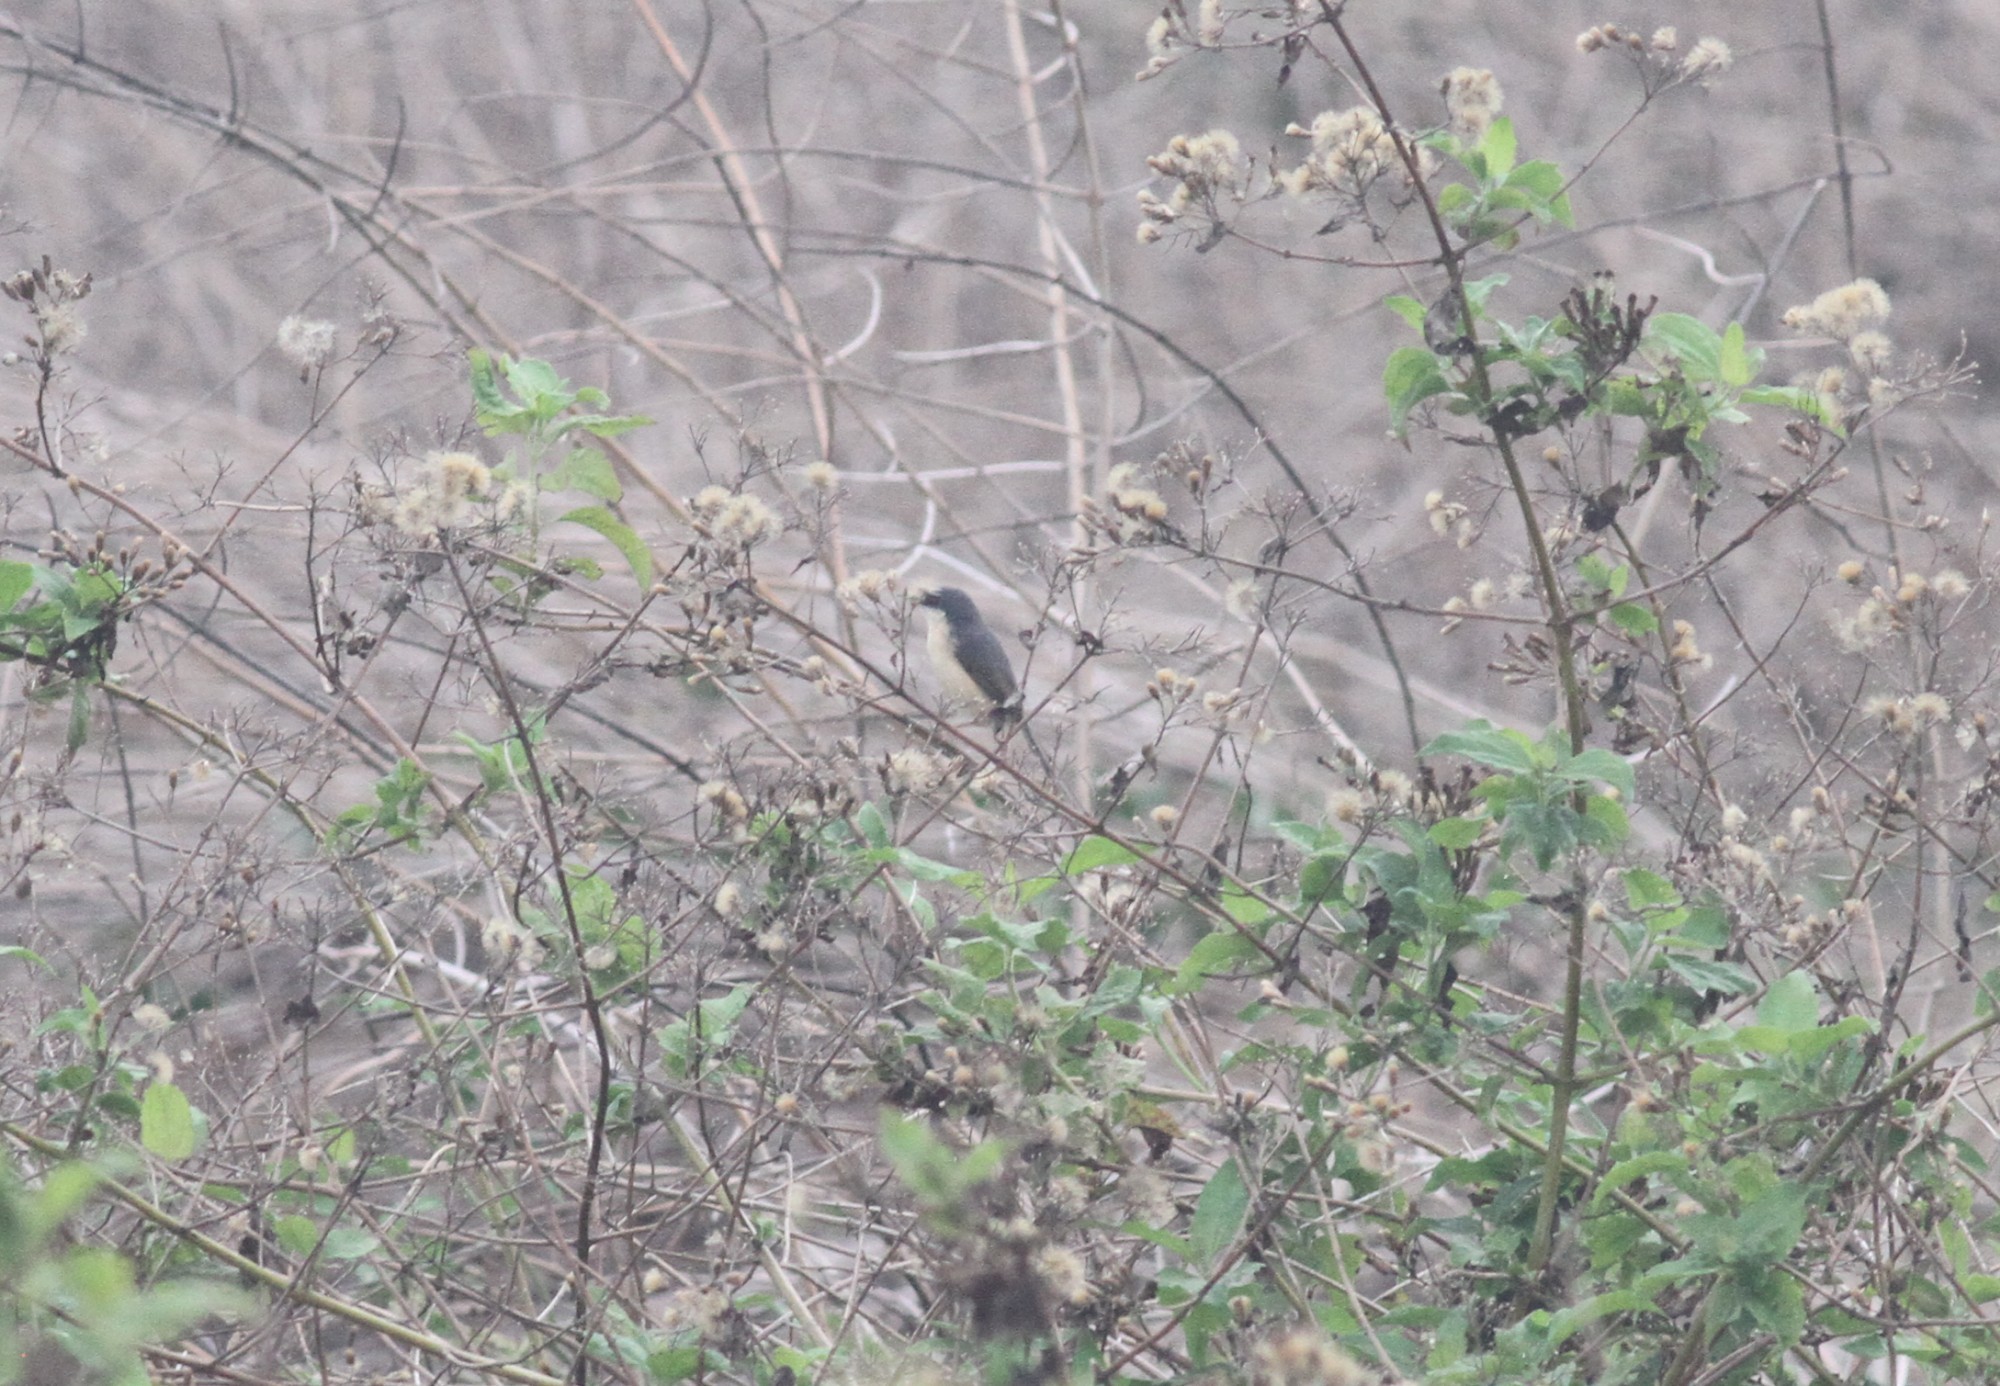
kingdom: Animalia
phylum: Chordata
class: Aves
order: Passeriformes
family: Cisticolidae
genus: Prinia
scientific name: Prinia socialis
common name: Ashy prinia
